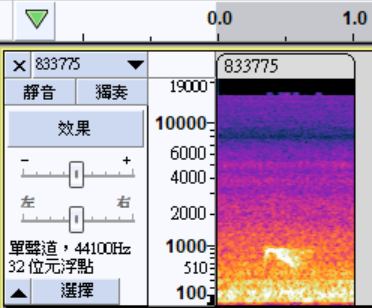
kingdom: Animalia
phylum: Chordata
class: Aves
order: Strigiformes
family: Strigidae
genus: Otus
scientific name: Otus lettia
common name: Collared scops owl
